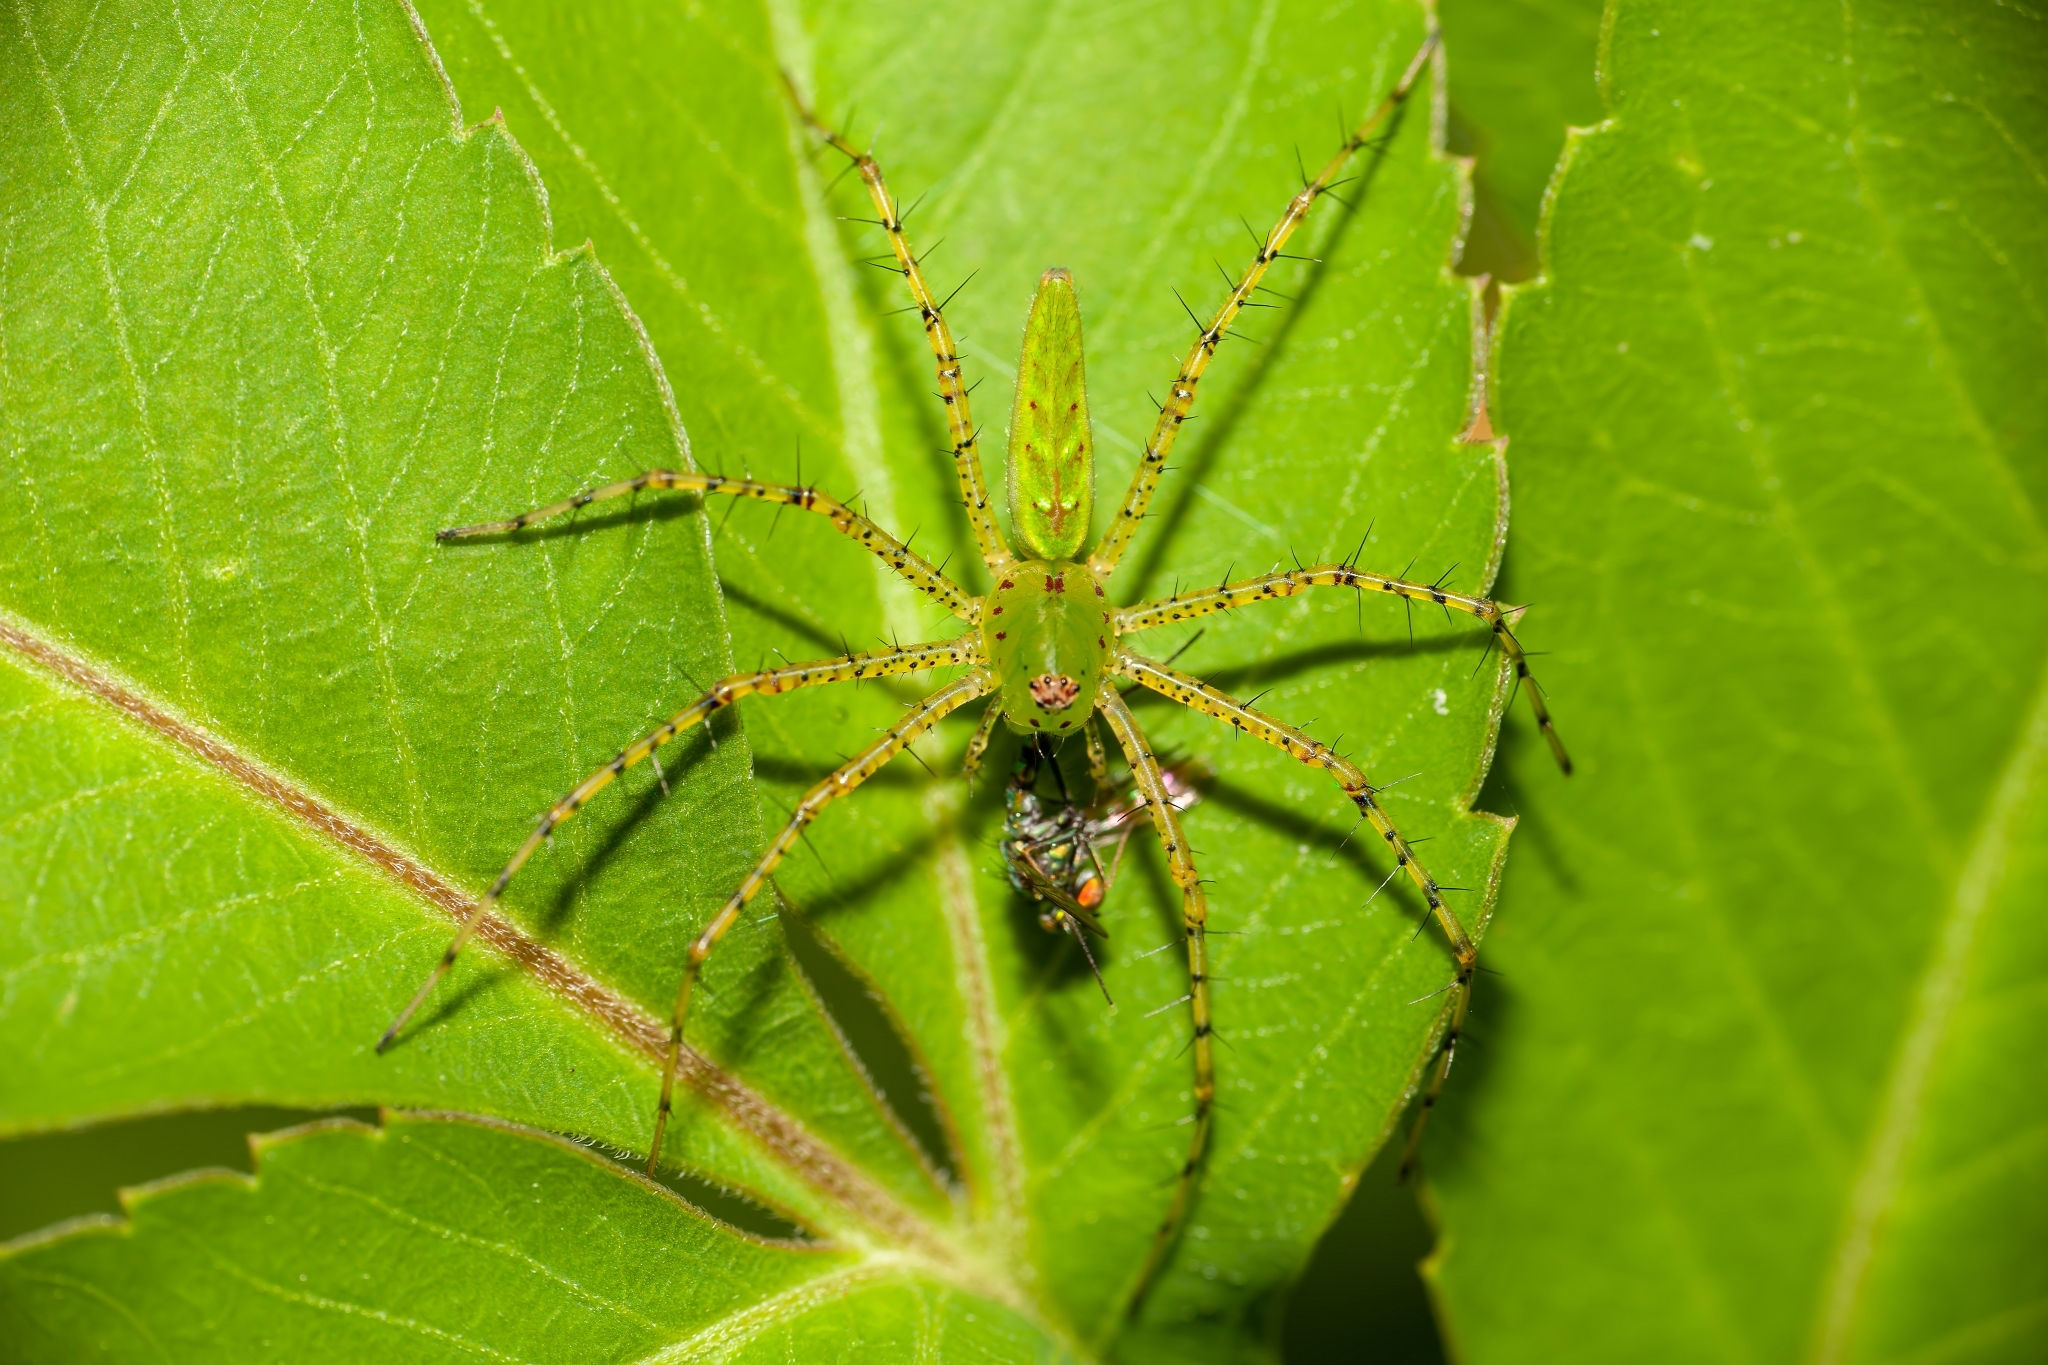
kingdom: Animalia
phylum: Arthropoda
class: Arachnida
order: Araneae
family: Oxyopidae
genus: Peucetia
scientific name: Peucetia viridans
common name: Lynx spiders
